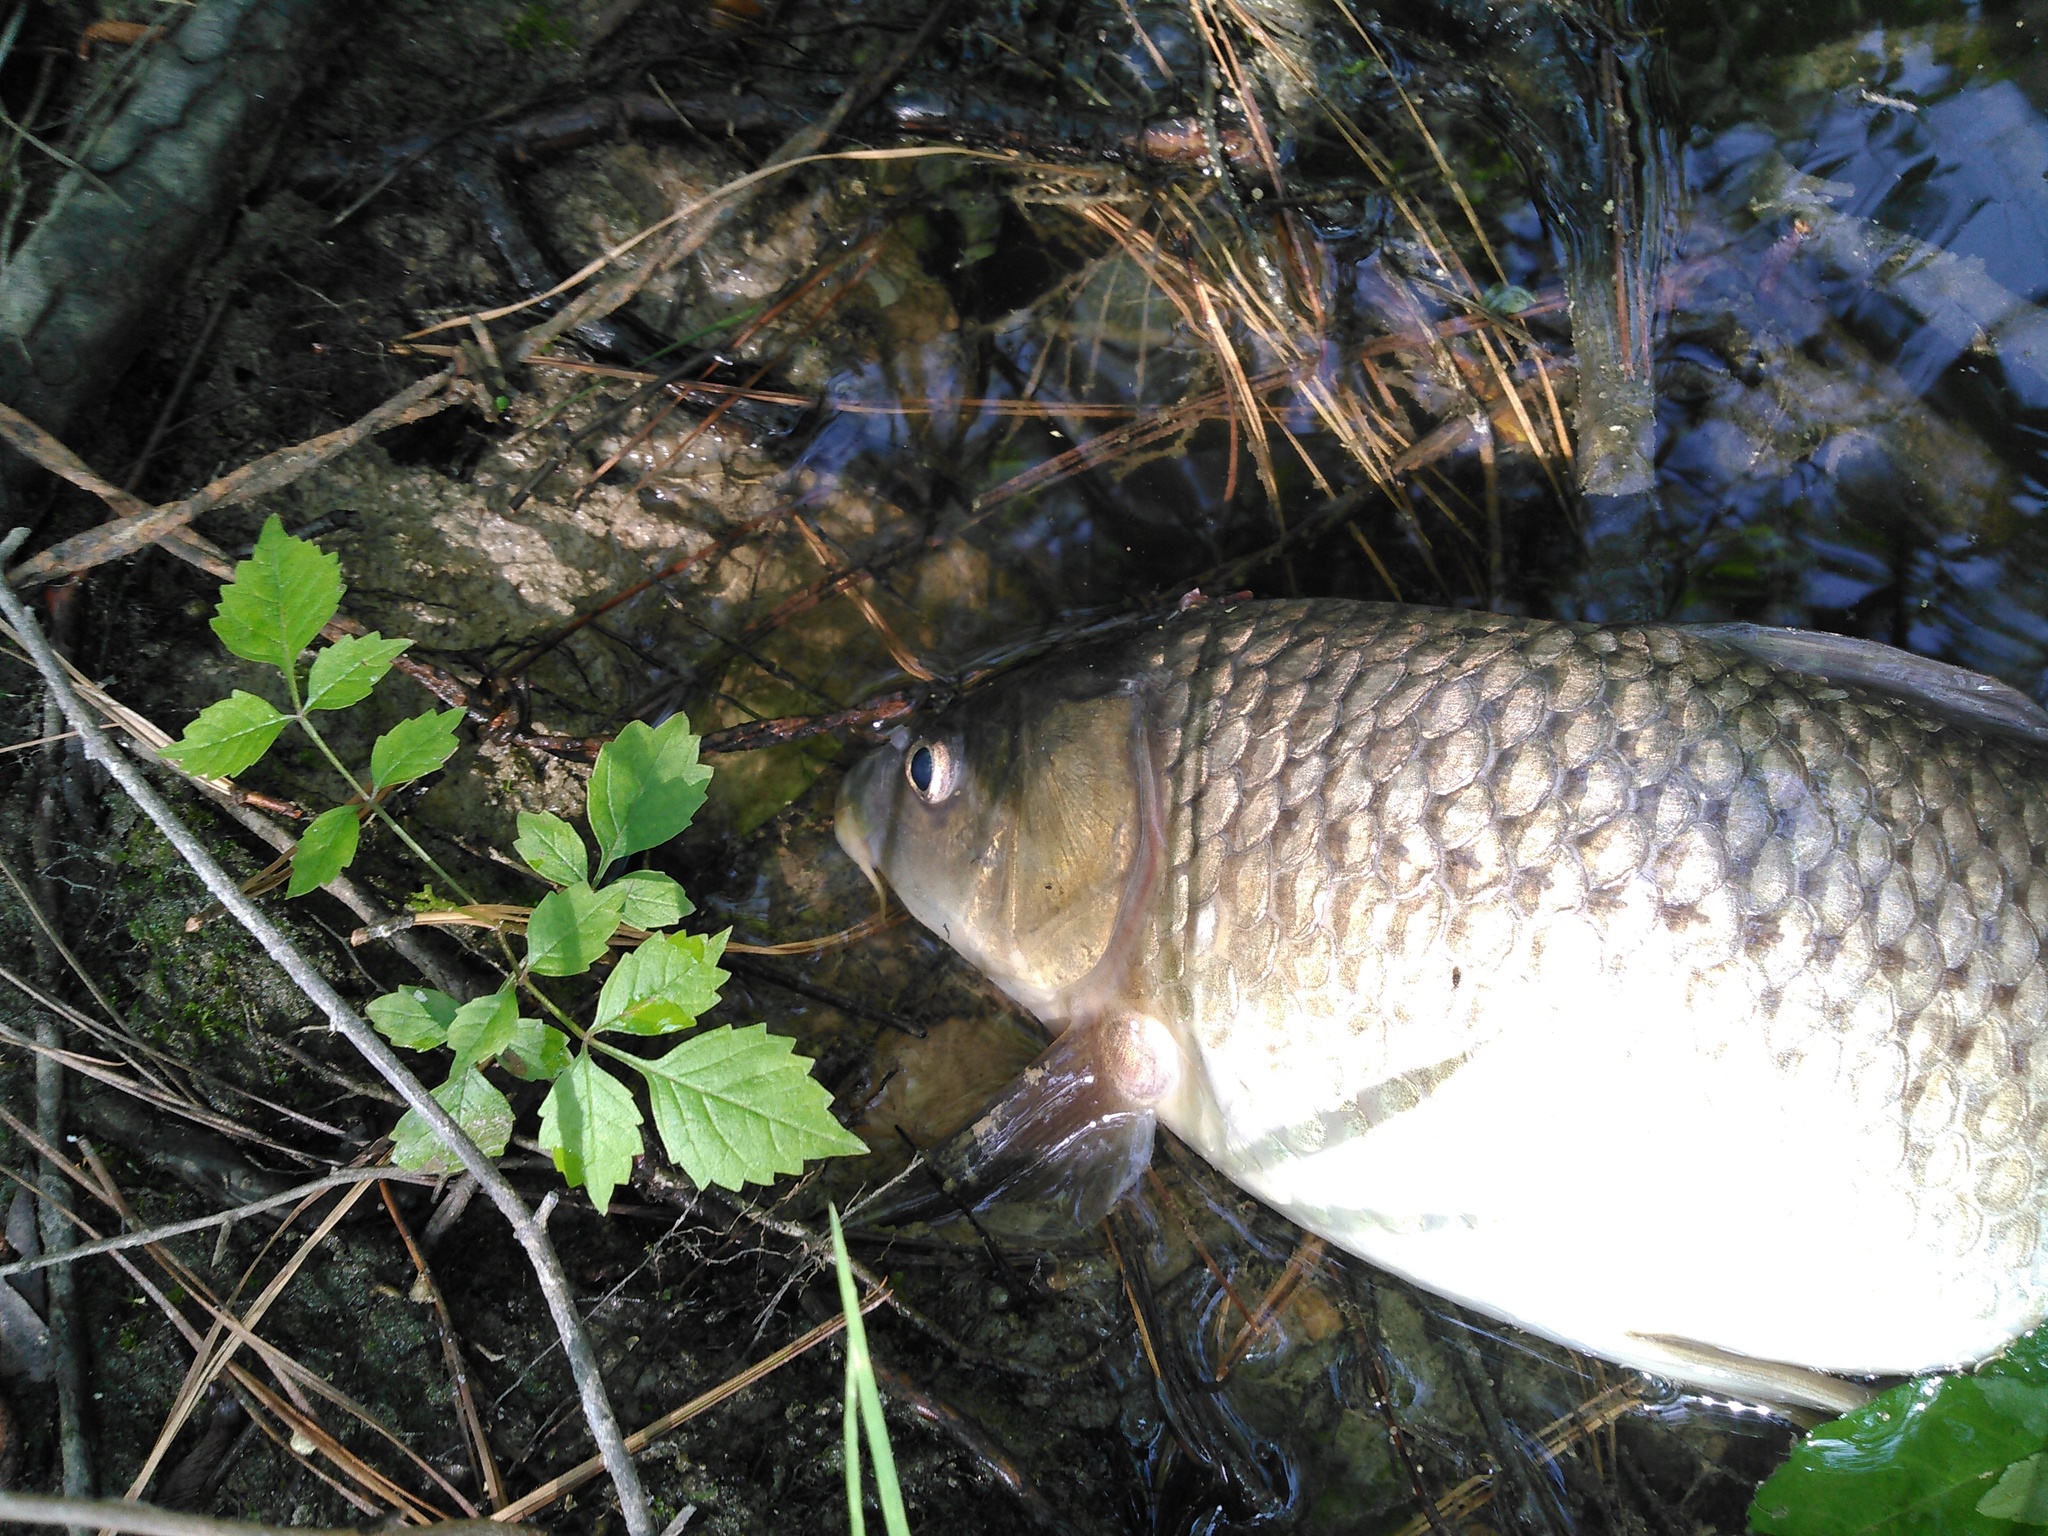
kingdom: Animalia
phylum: Chordata
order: Cypriniformes
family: Cyprinidae
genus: Cyprinus
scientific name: Cyprinus carpio
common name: Common carp
